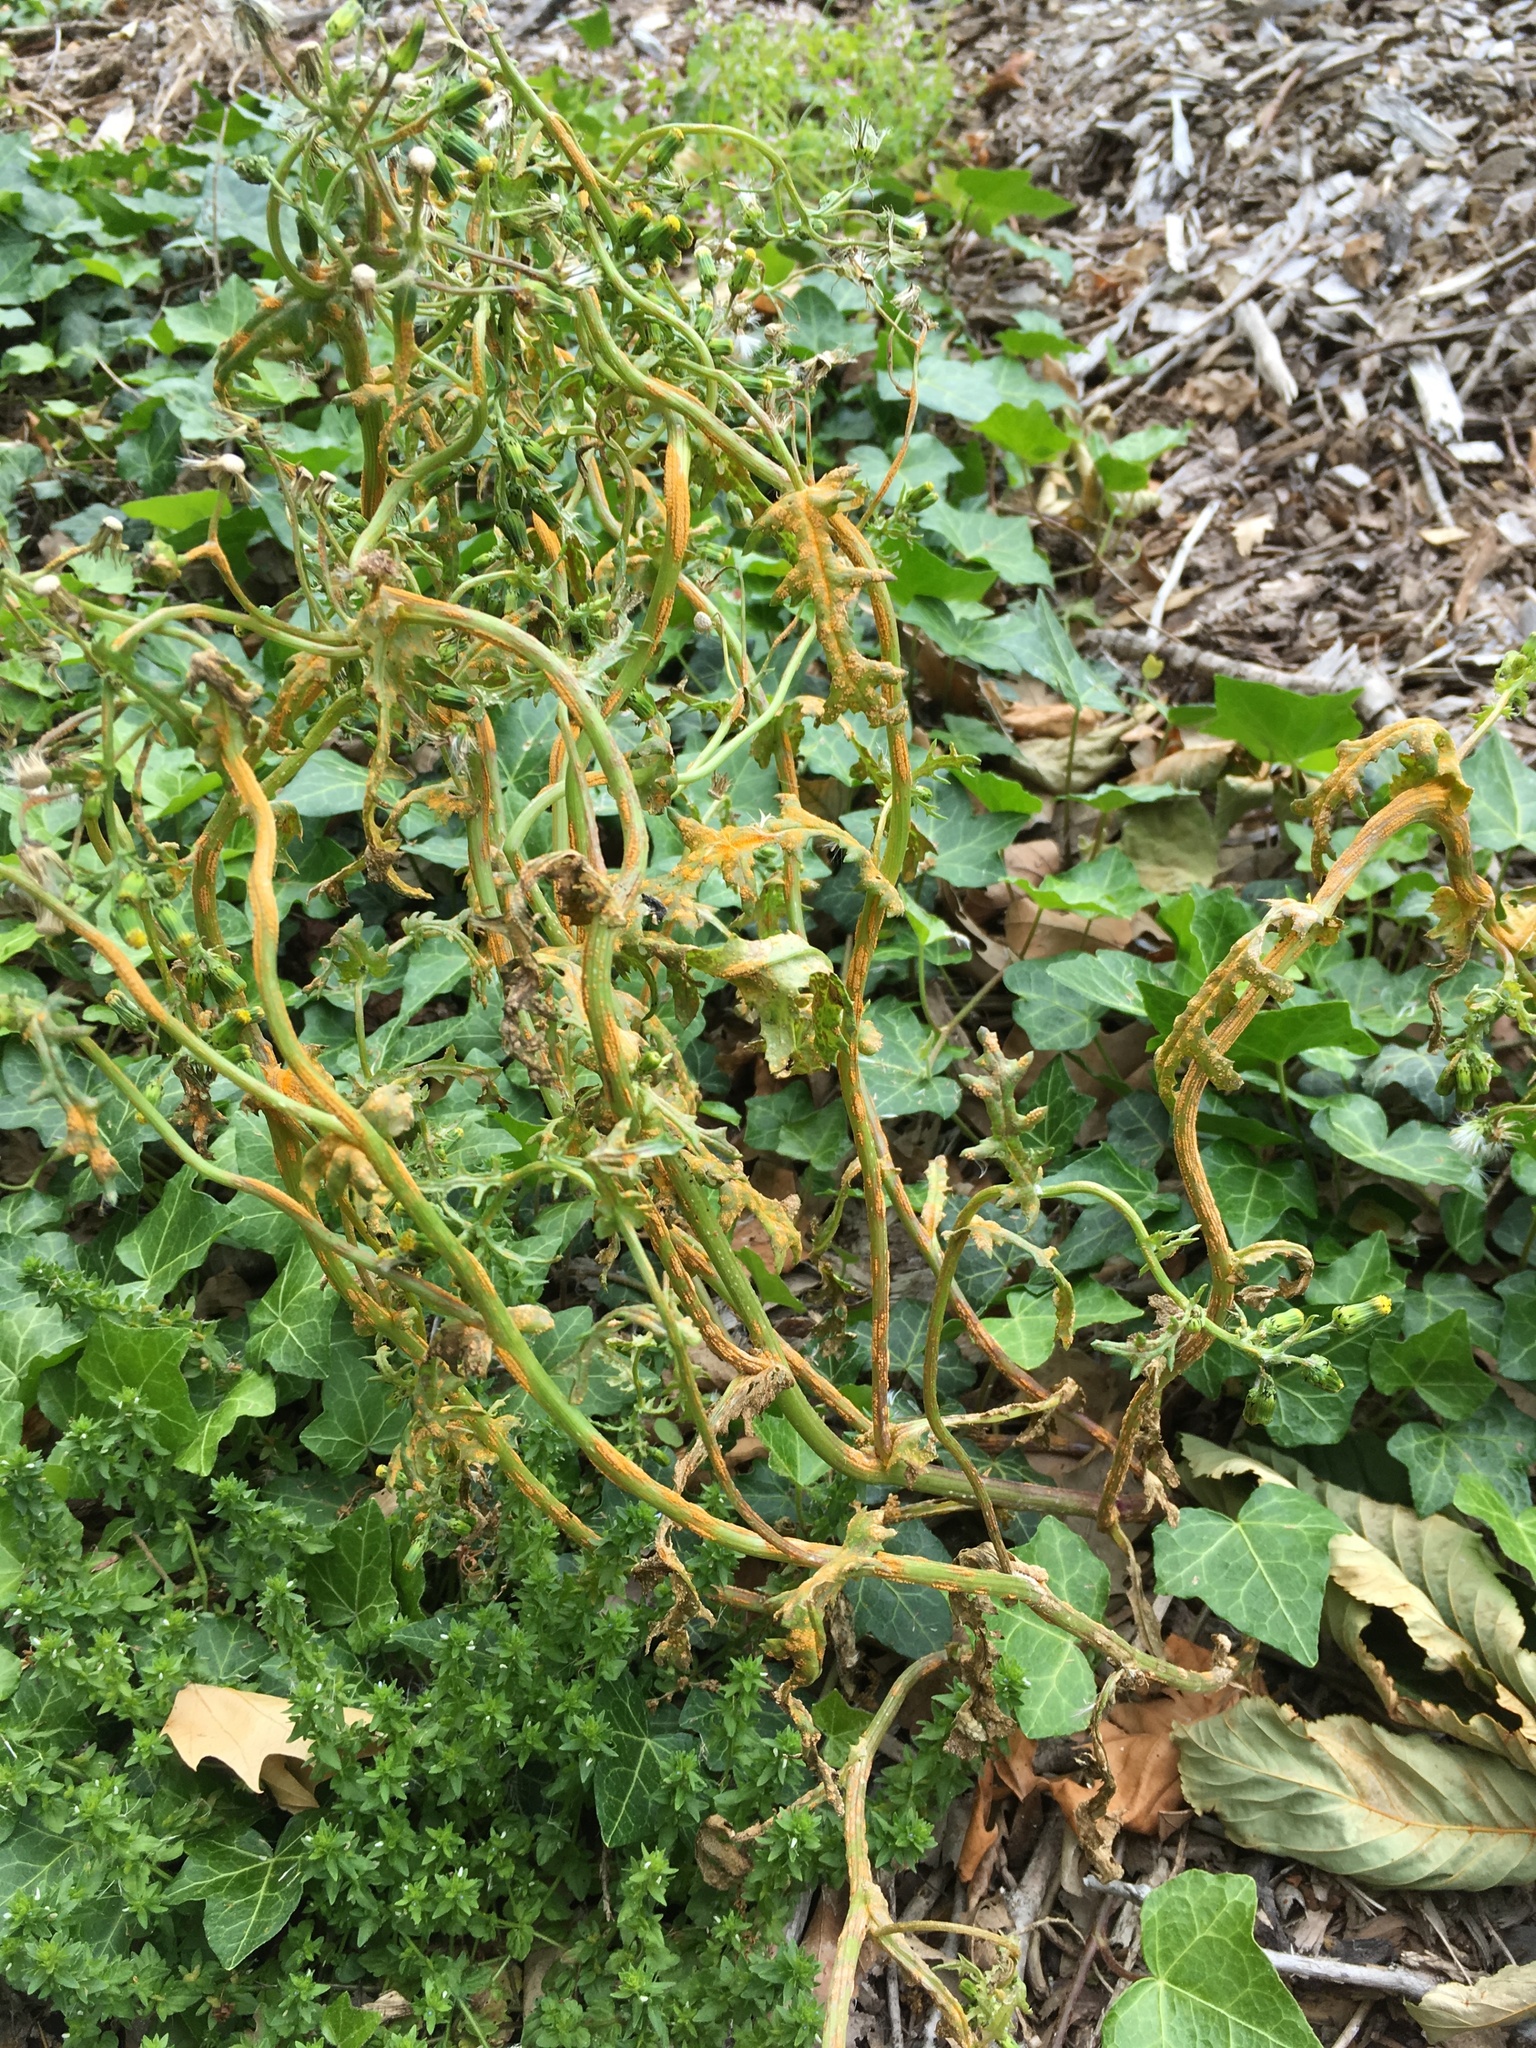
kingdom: Fungi
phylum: Basidiomycota
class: Pucciniomycetes
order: Pucciniales
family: Pucciniaceae
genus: Puccinia
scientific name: Puccinia lagenophorae
